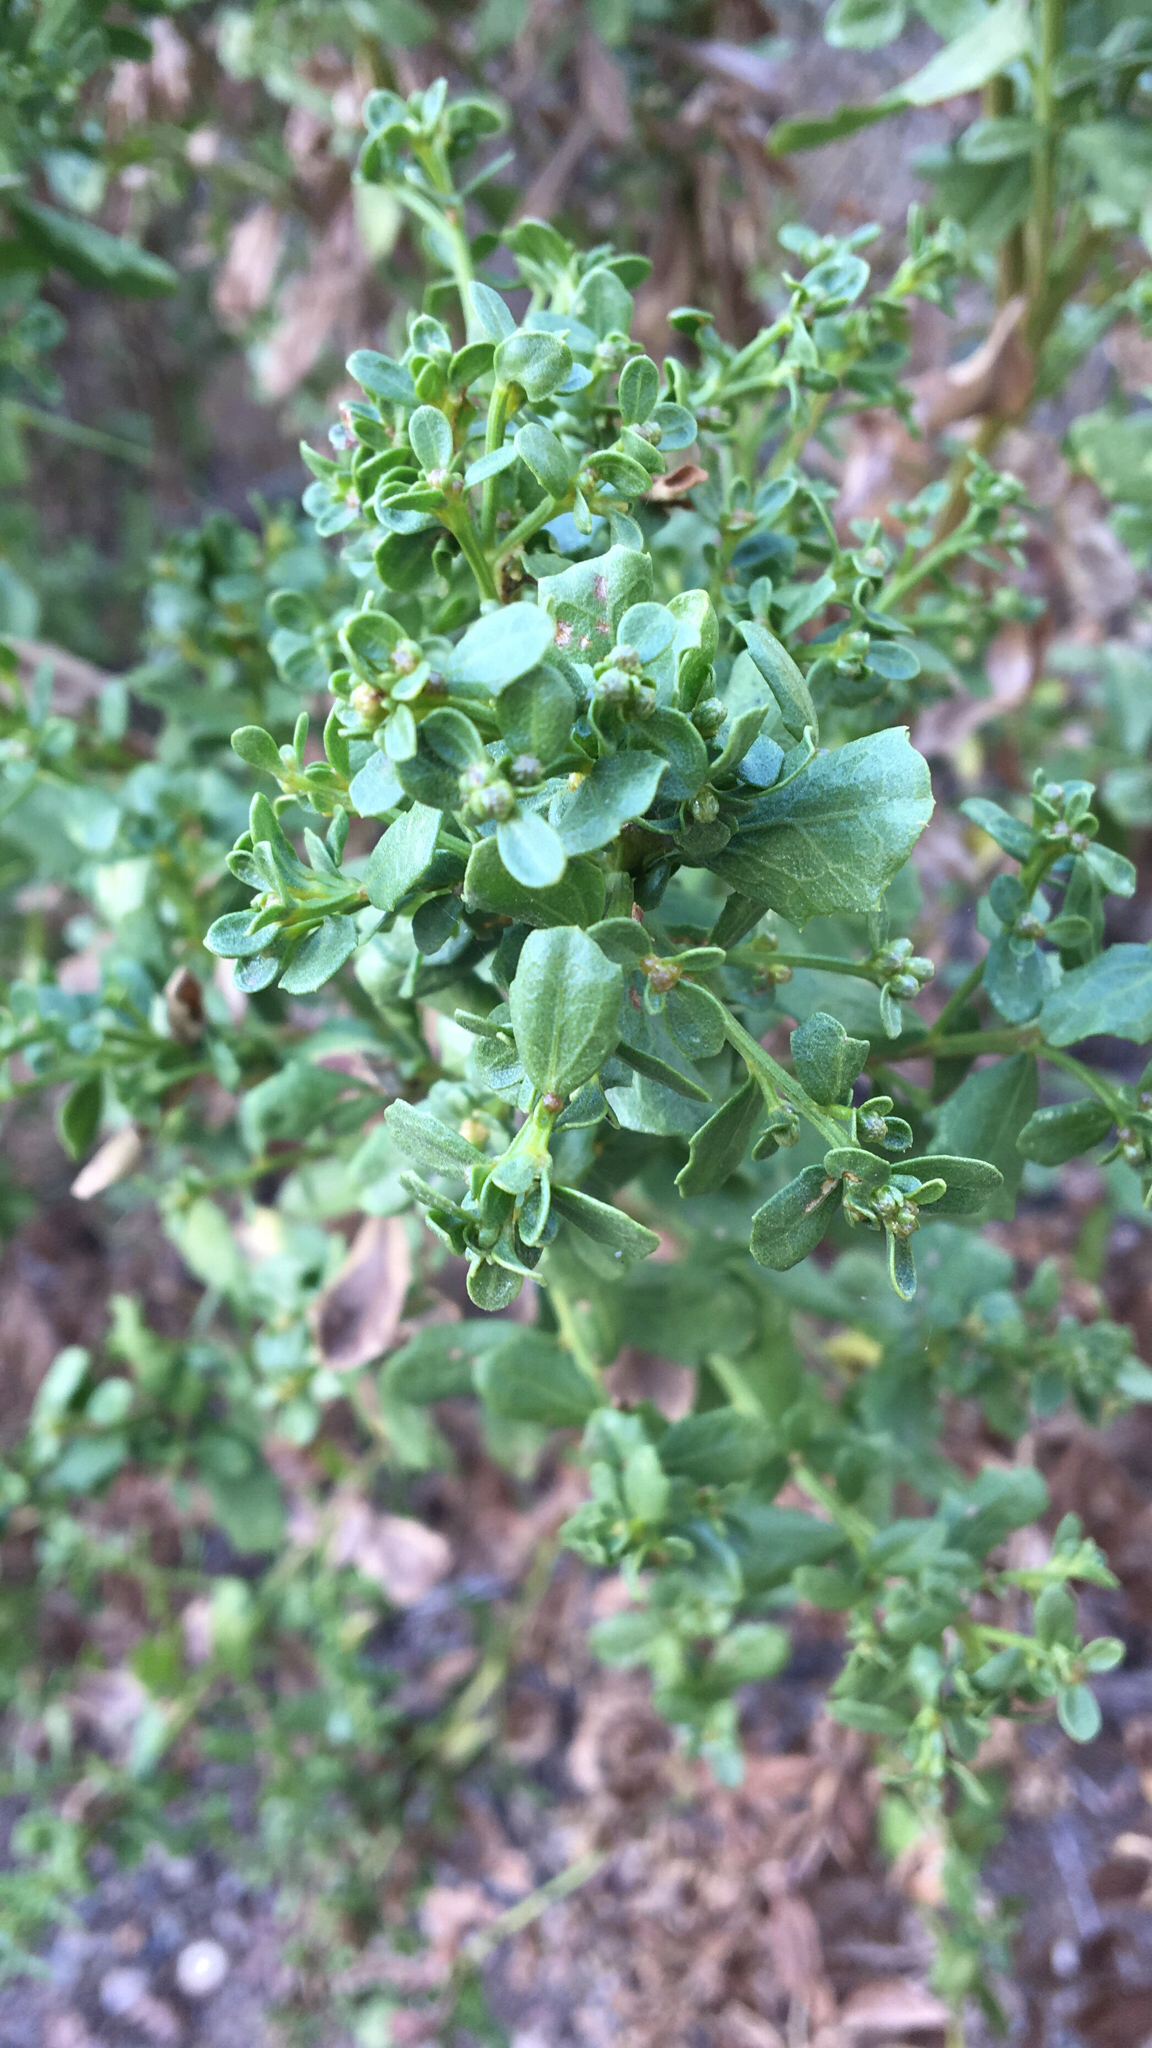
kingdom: Plantae
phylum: Tracheophyta
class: Magnoliopsida
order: Asterales
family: Asteraceae
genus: Baccharis
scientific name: Baccharis pilularis
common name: Coyotebrush
